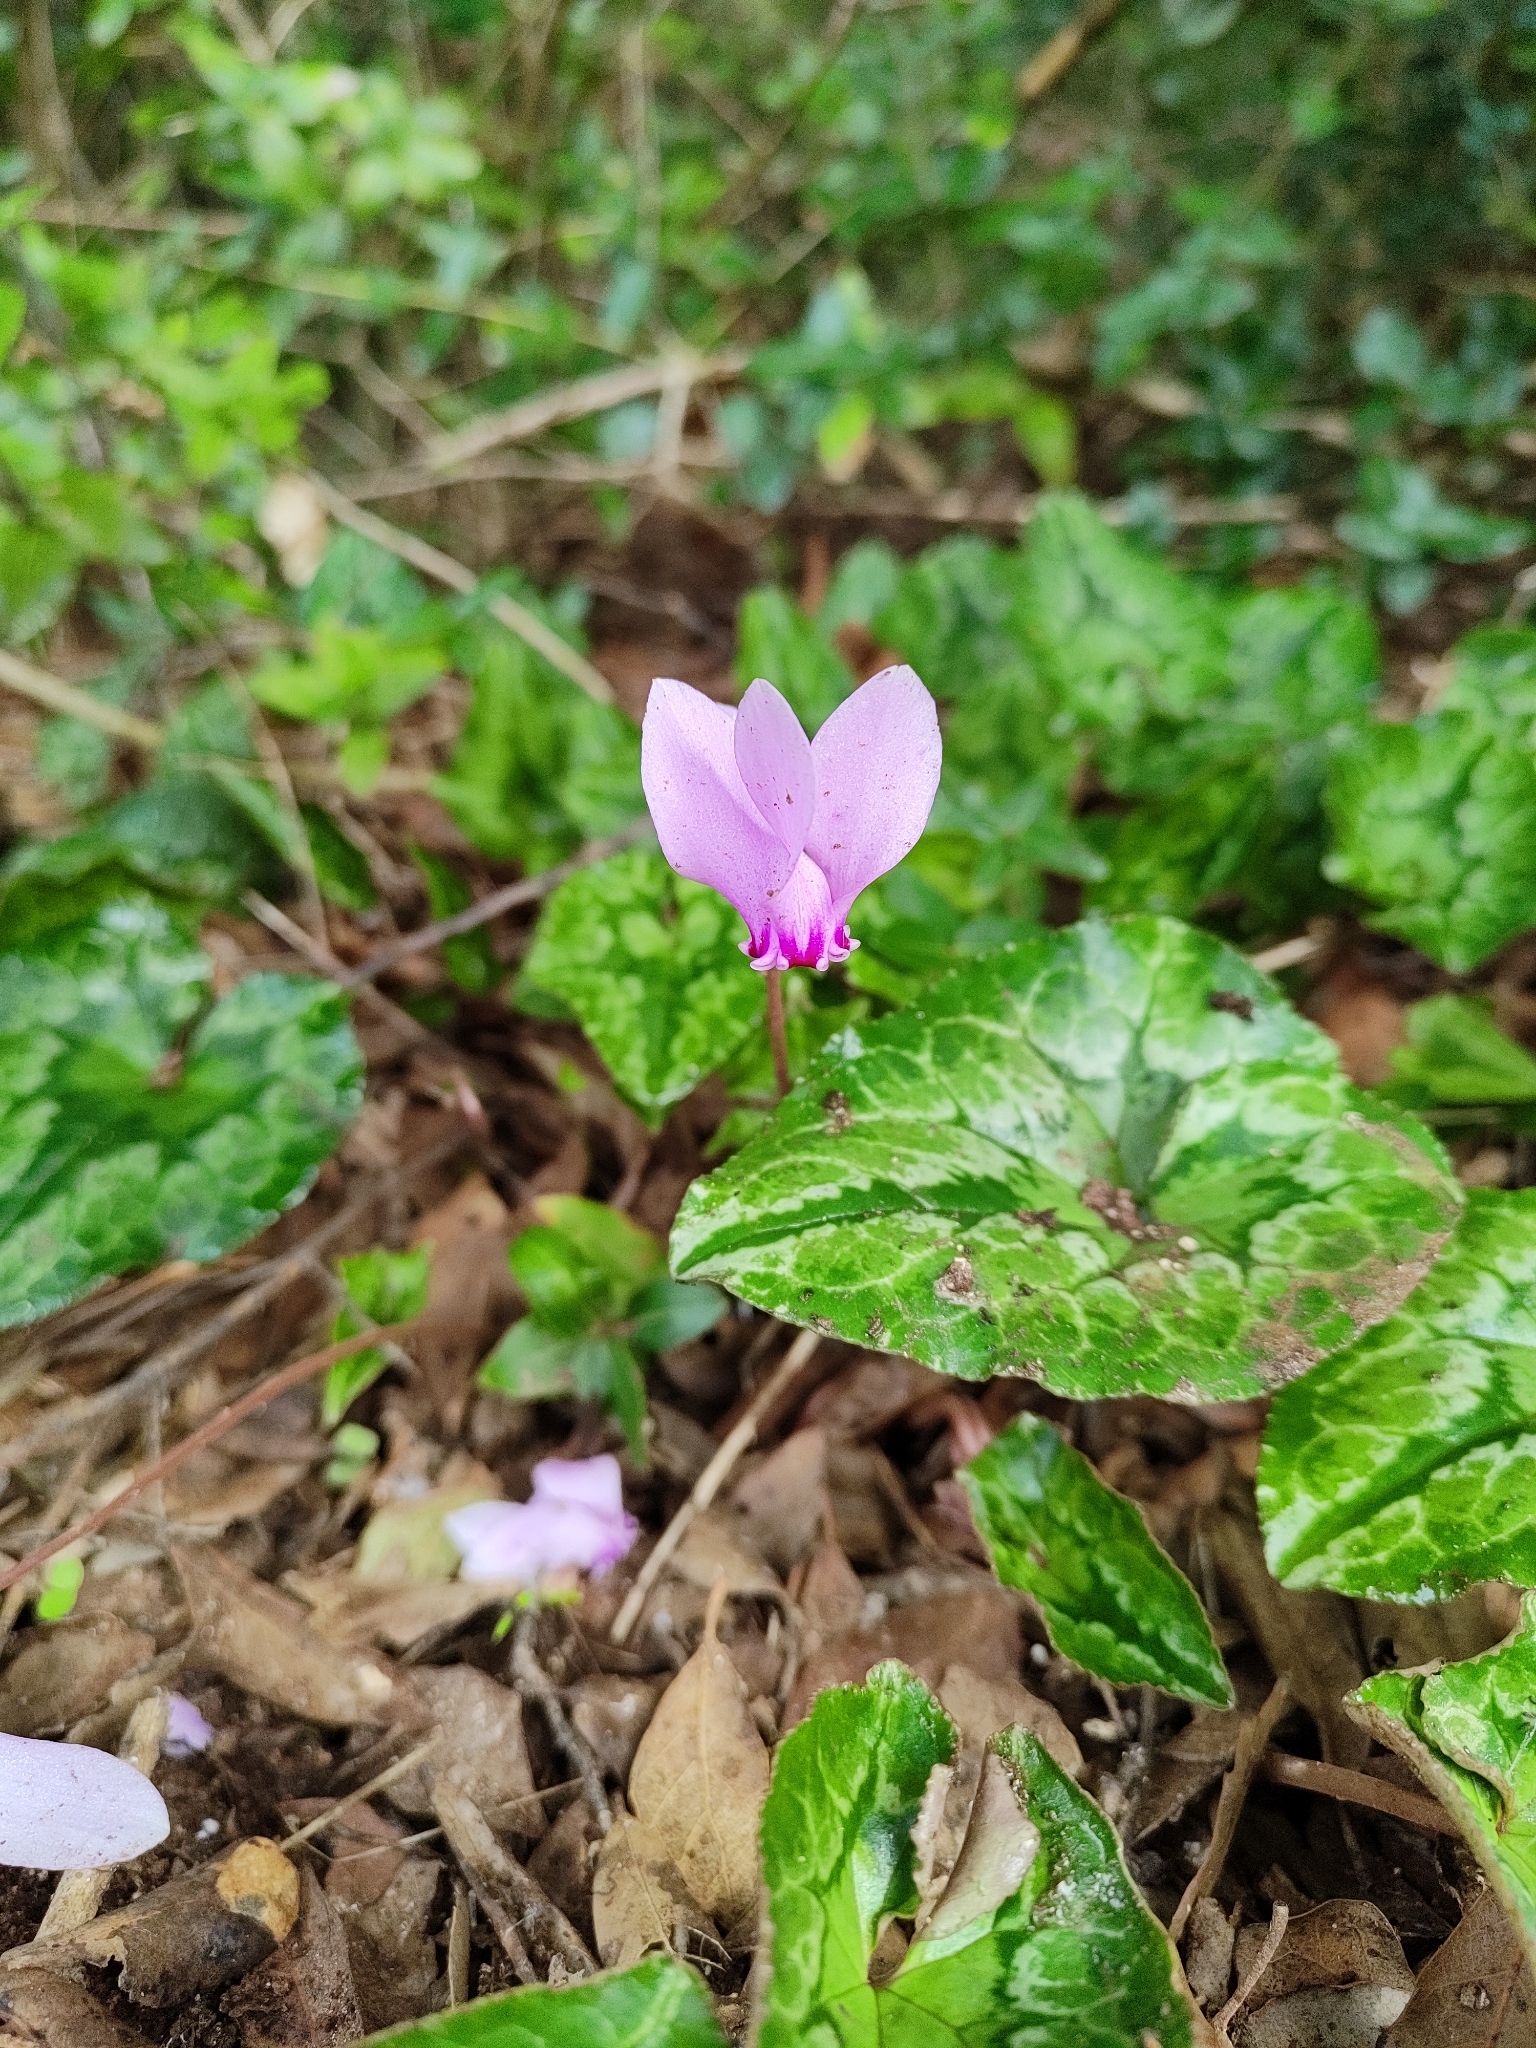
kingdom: Plantae
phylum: Tracheophyta
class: Magnoliopsida
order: Ericales
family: Primulaceae
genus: Cyclamen
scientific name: Cyclamen hederifolium
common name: Sowbread
